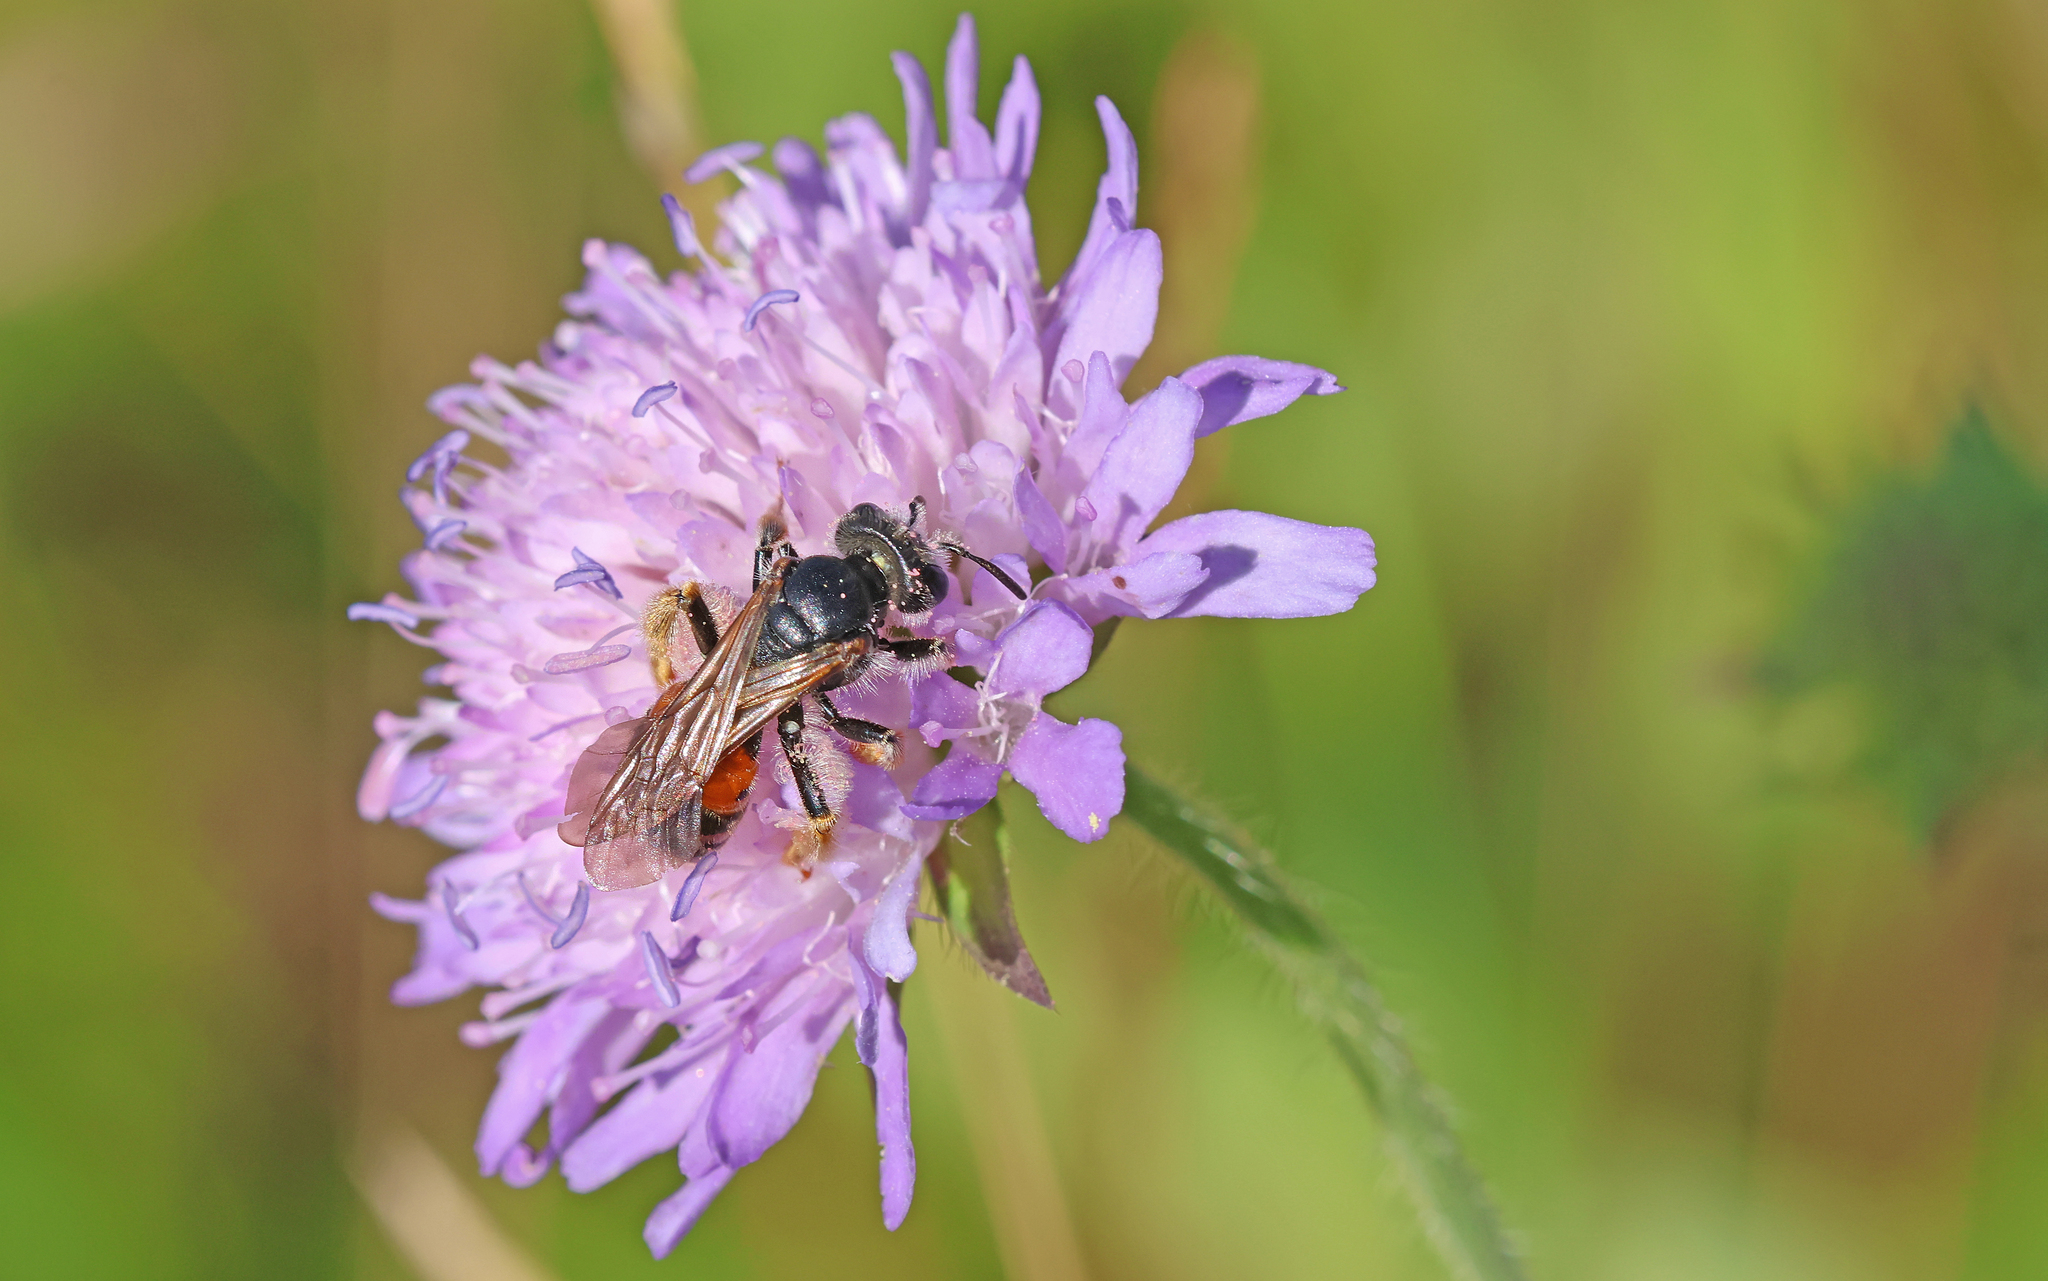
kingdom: Animalia
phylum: Arthropoda
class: Insecta
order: Hymenoptera
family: Andrenidae
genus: Andrena
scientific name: Andrena hattorfiana
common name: Large scabious mining bee
